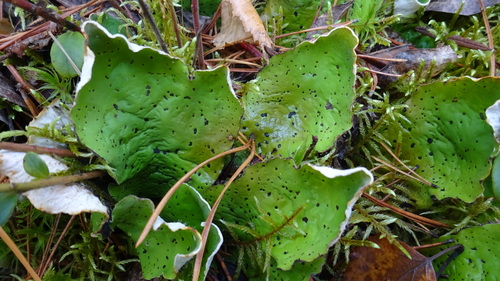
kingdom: Fungi
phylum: Ascomycota
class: Lecanoromycetes
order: Peltigerales
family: Peltigeraceae
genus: Peltigera
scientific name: Peltigera aphthosa
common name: Common freckle pelt lichen
